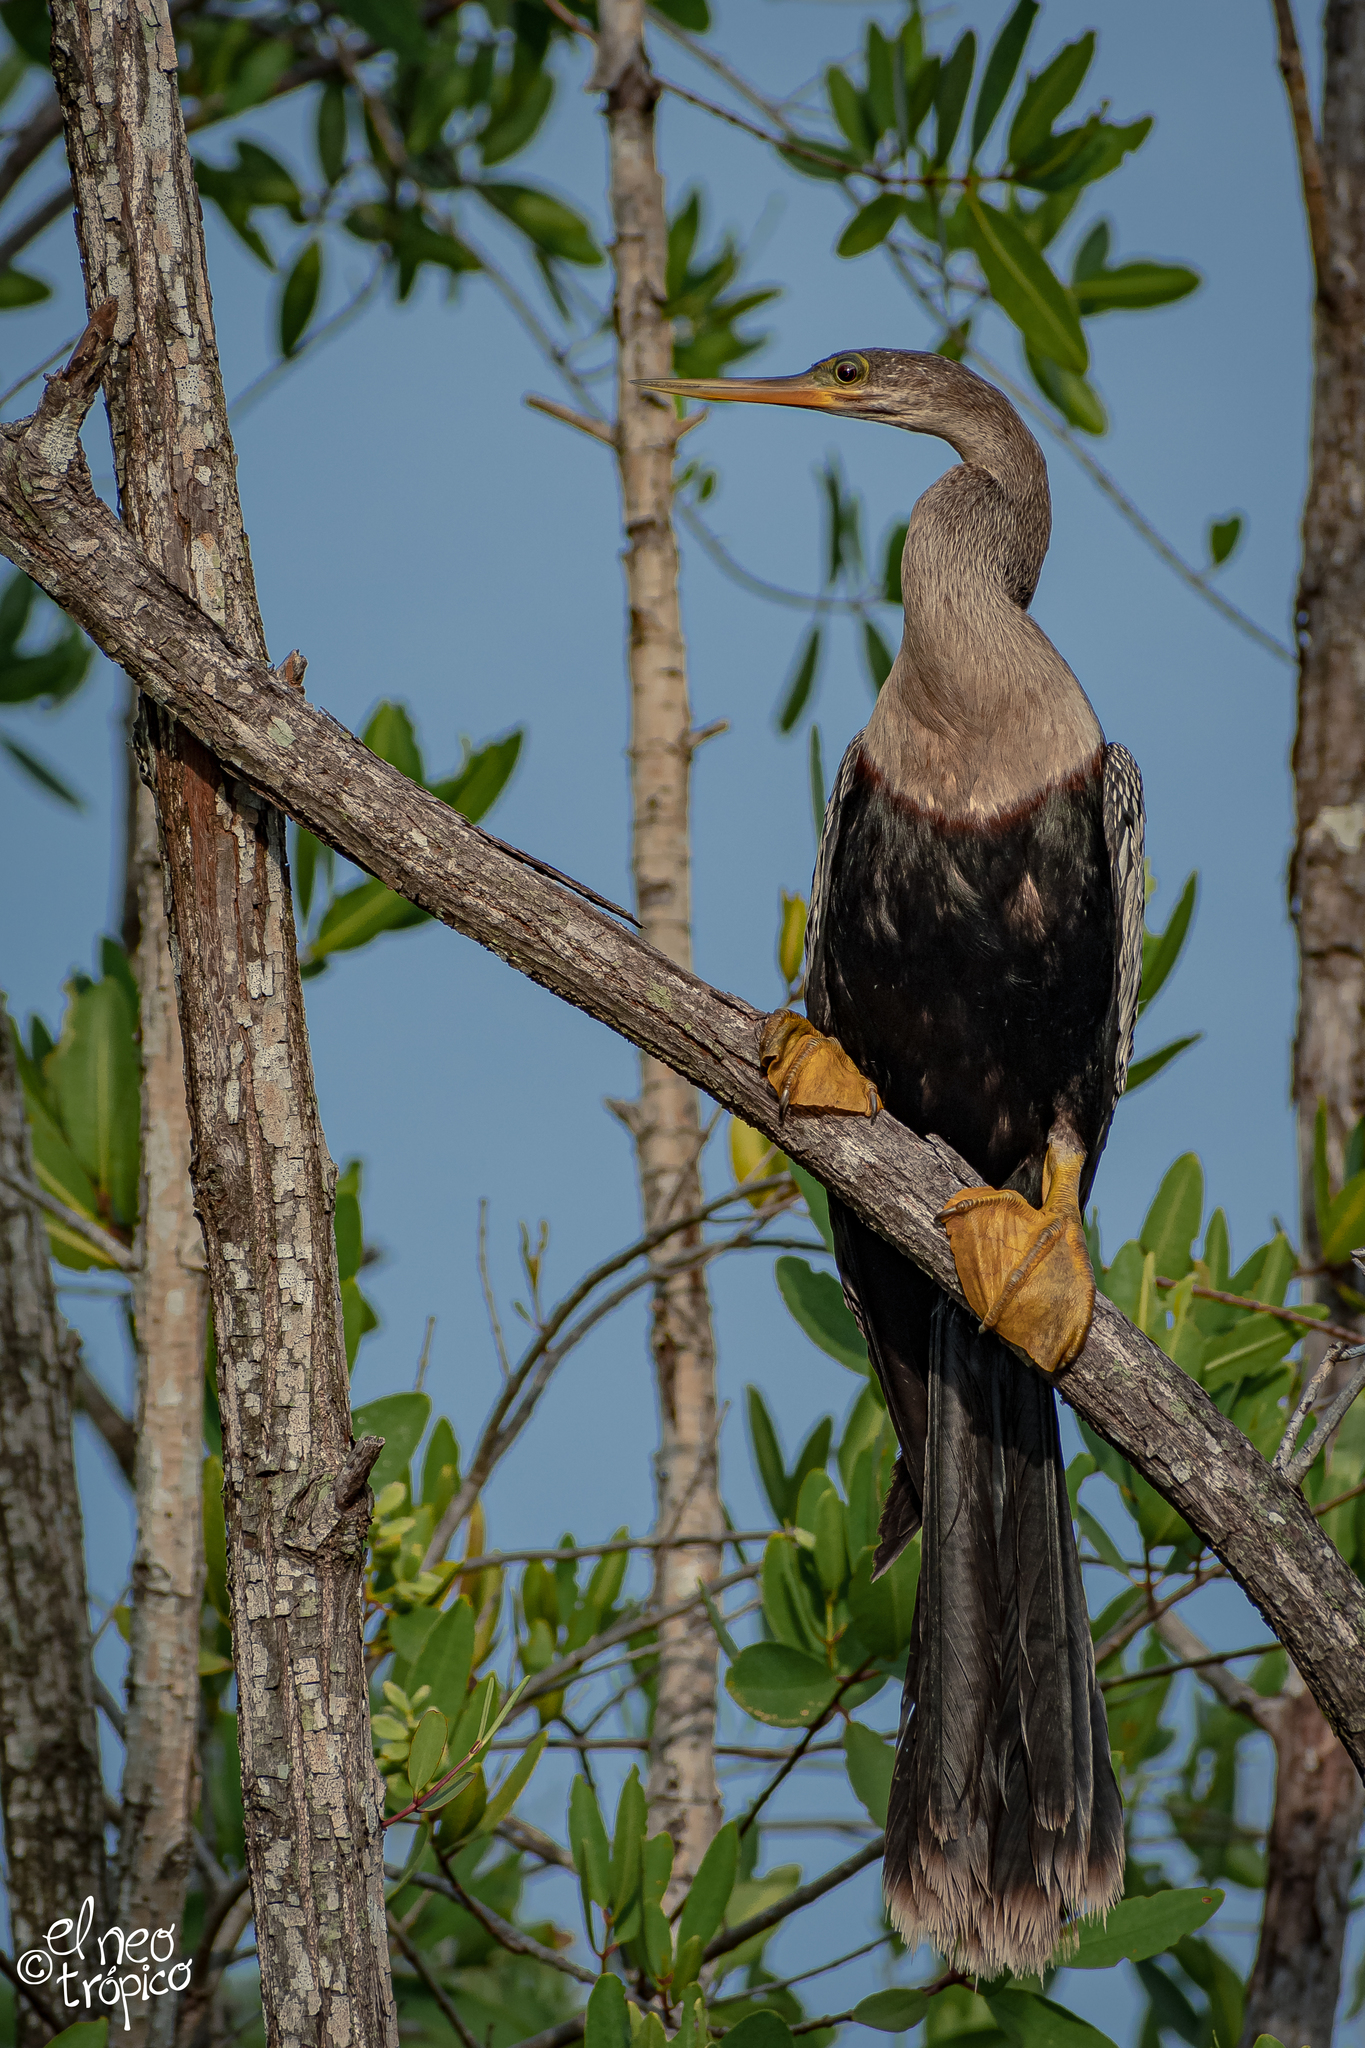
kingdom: Animalia
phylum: Chordata
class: Aves
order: Suliformes
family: Anhingidae
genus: Anhinga
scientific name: Anhinga anhinga
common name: Anhinga
